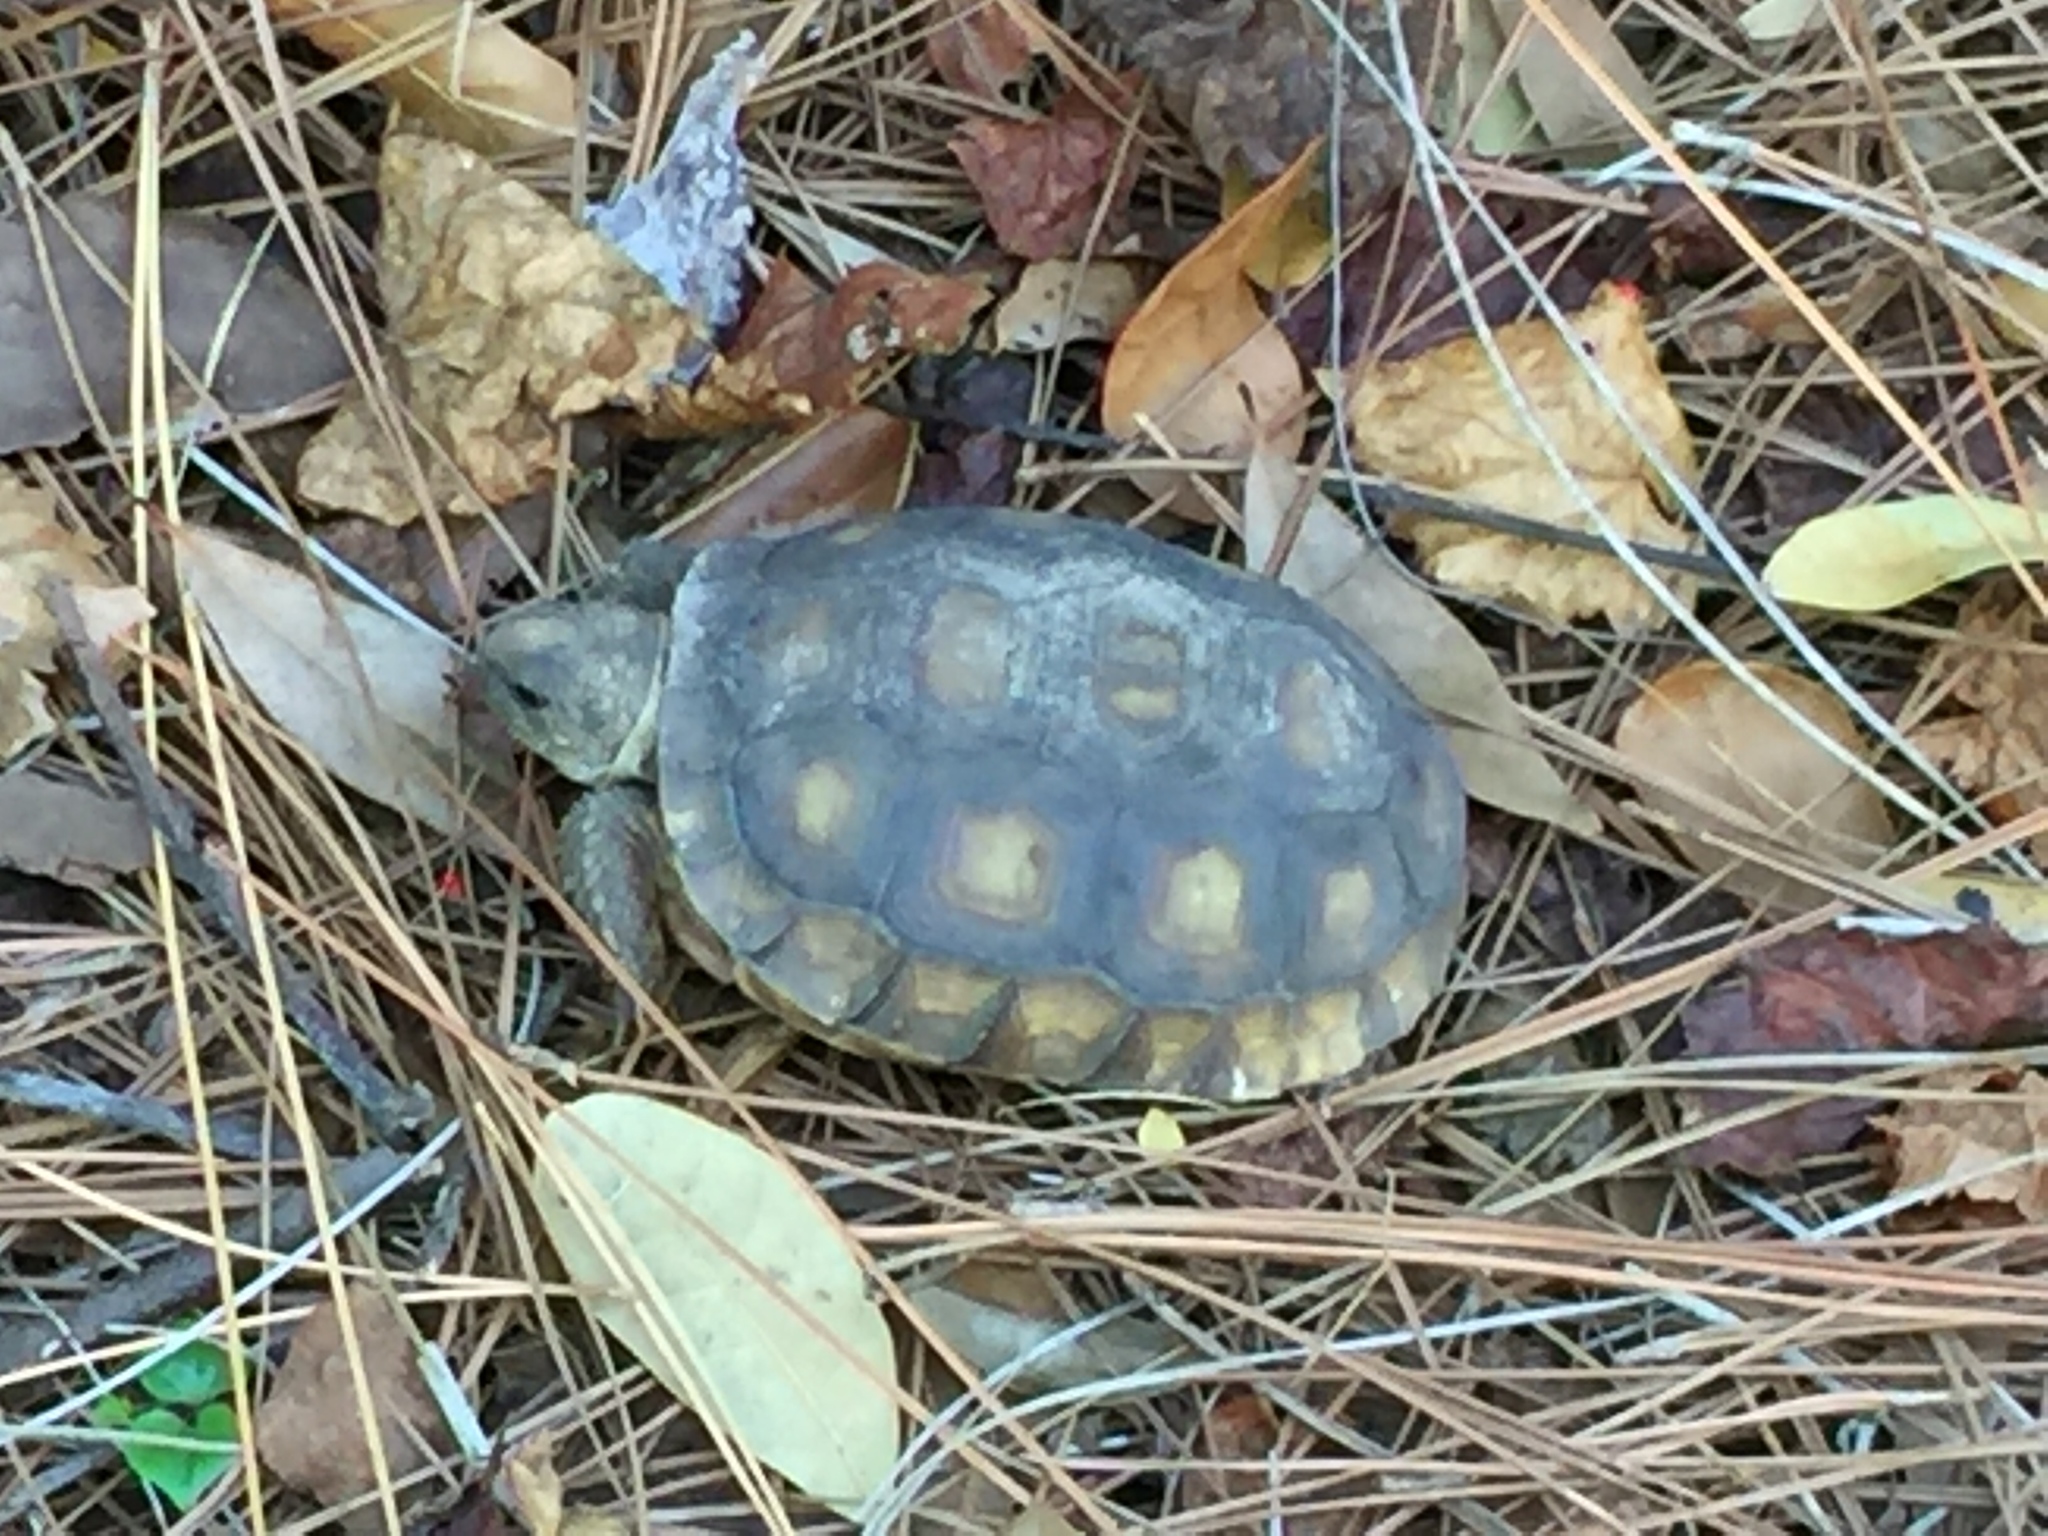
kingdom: Animalia
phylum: Chordata
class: Testudines
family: Testudinidae
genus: Gopherus
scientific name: Gopherus polyphemus
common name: Florida gopher tortoise
